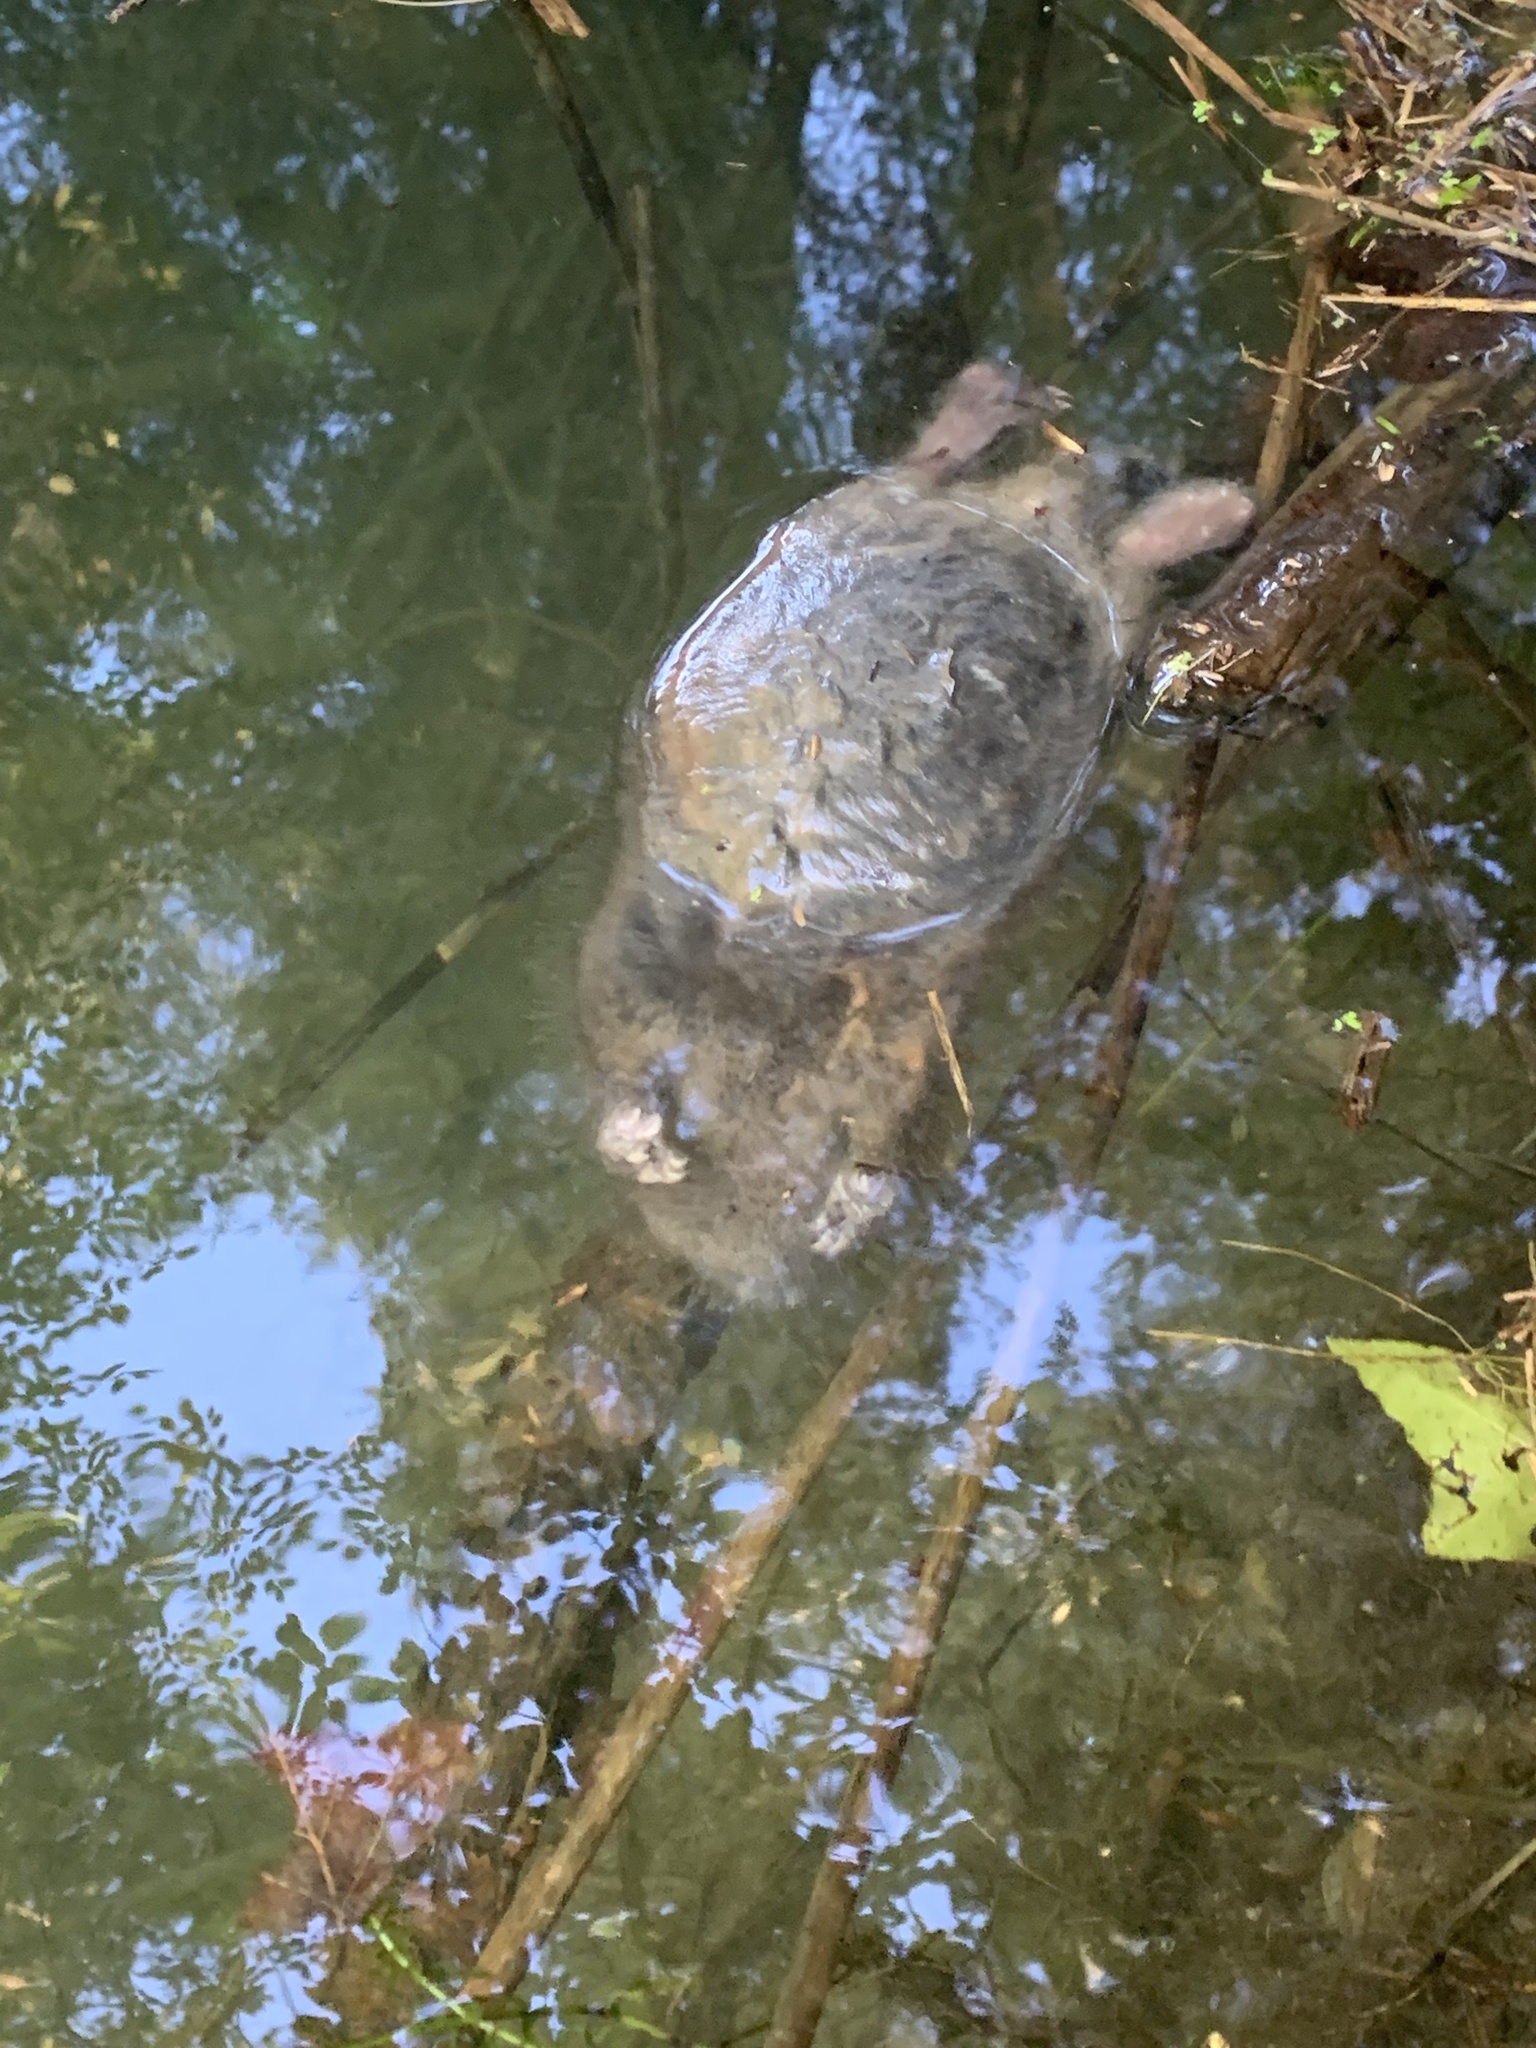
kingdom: Animalia
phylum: Chordata
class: Mammalia
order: Rodentia
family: Cricetidae
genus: Ondatra
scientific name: Ondatra zibethicus
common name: Muskrat
